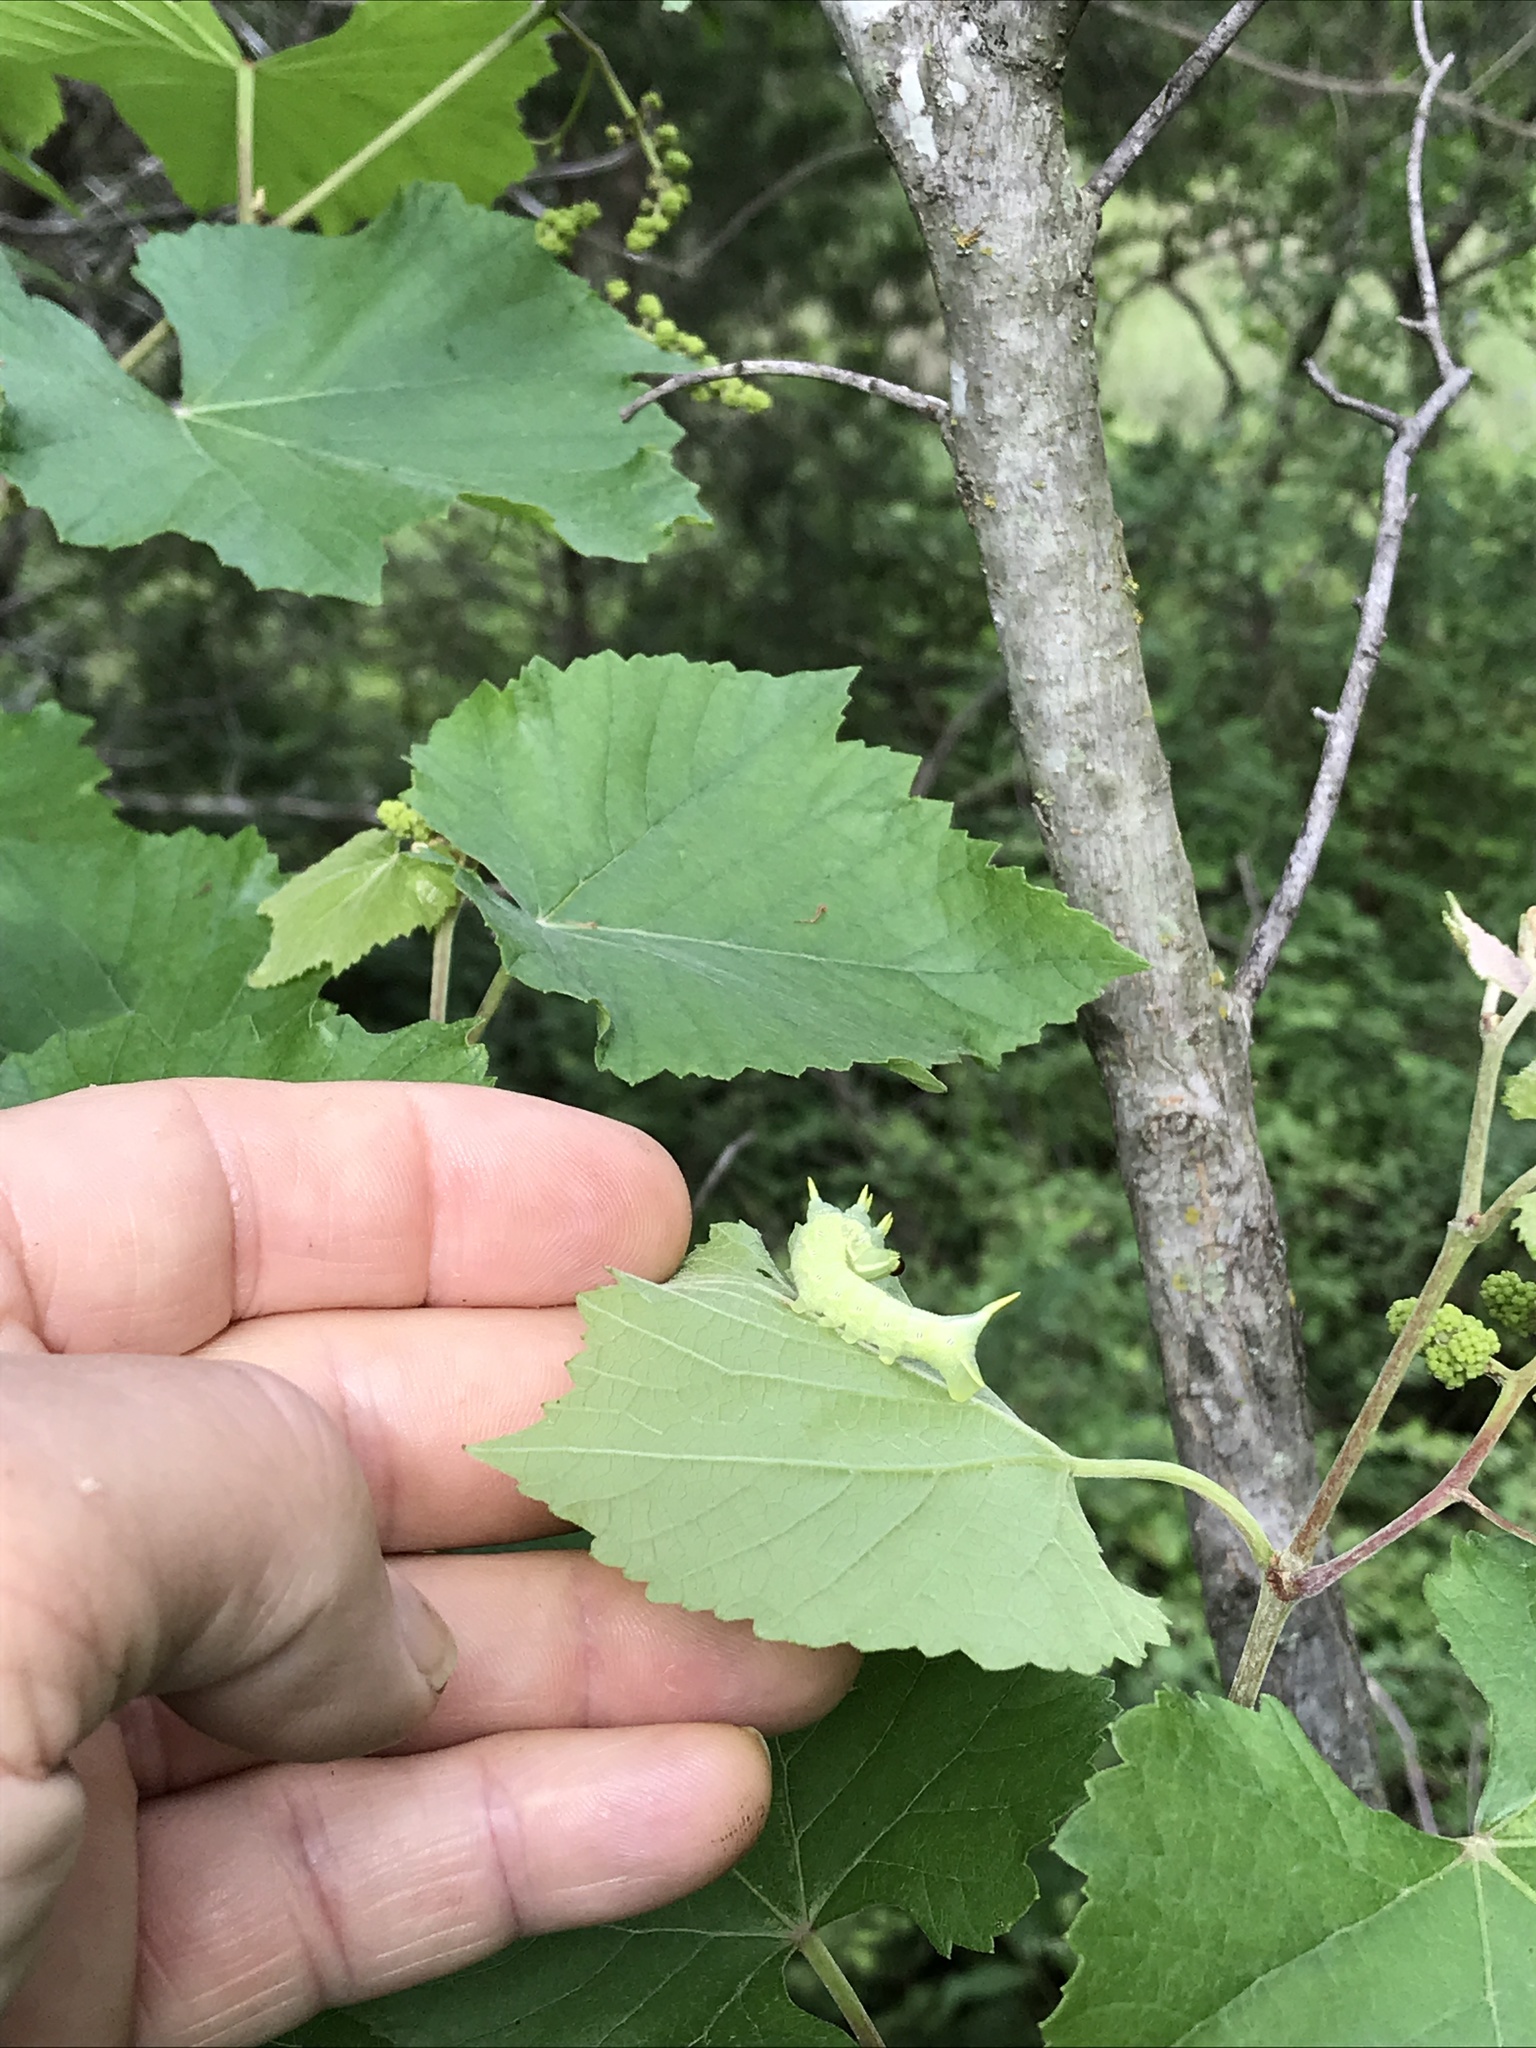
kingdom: Animalia
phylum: Arthropoda
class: Insecta
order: Lepidoptera
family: Sphingidae
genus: Deidamia
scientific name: Deidamia inscriptum
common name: Lettered sphinx
